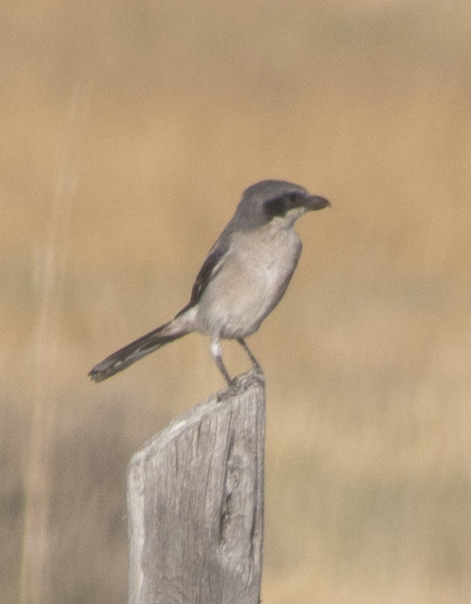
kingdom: Animalia
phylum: Chordata
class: Aves
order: Passeriformes
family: Laniidae
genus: Lanius
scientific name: Lanius ludovicianus
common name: Loggerhead shrike
